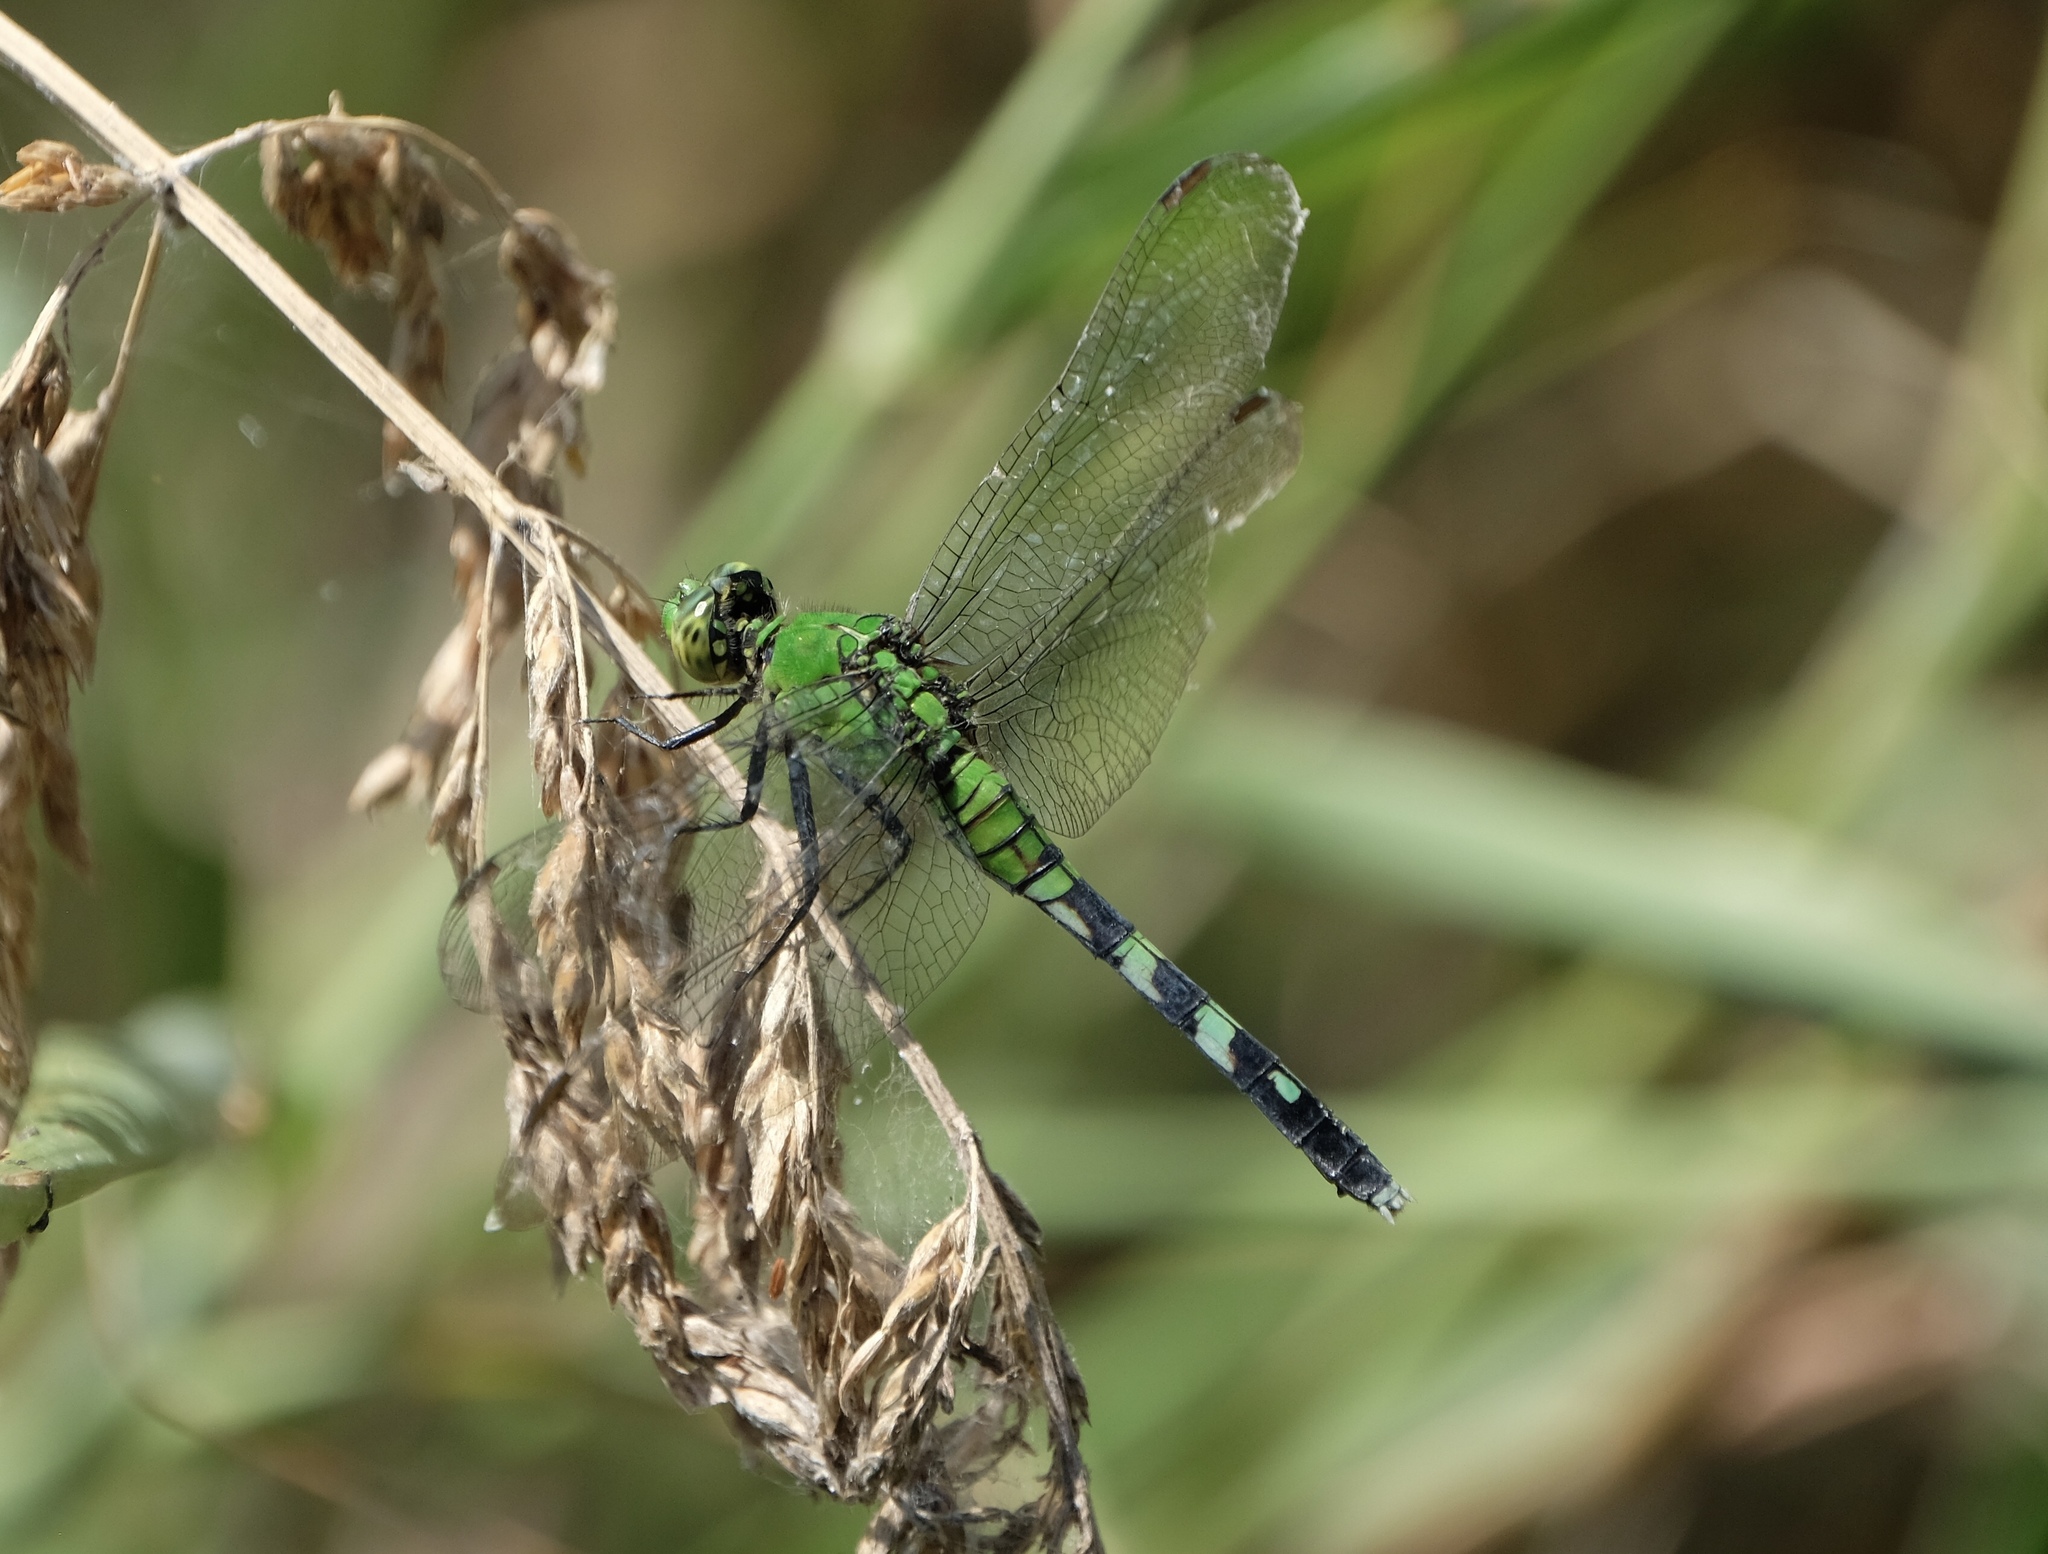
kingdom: Animalia
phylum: Arthropoda
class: Insecta
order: Odonata
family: Libellulidae
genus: Erythemis
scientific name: Erythemis simplicicollis
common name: Eastern pondhawk
